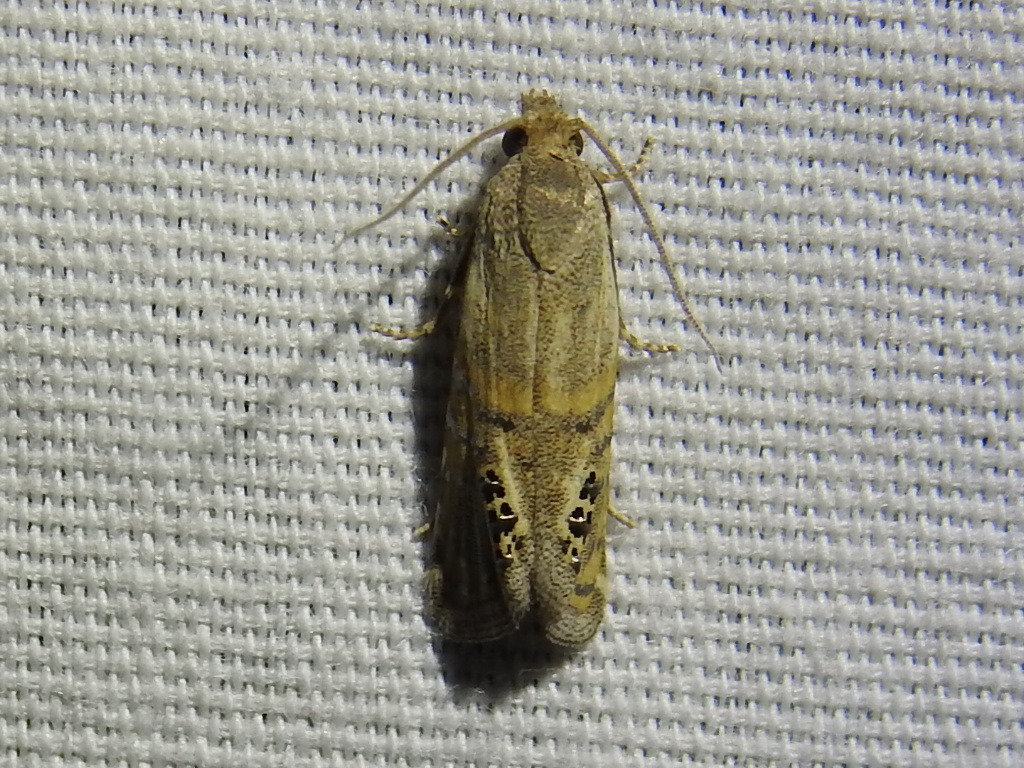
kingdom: Animalia
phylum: Arthropoda
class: Insecta
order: Lepidoptera
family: Tortricidae
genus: Pelochrista
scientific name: Pelochrista scintillana
